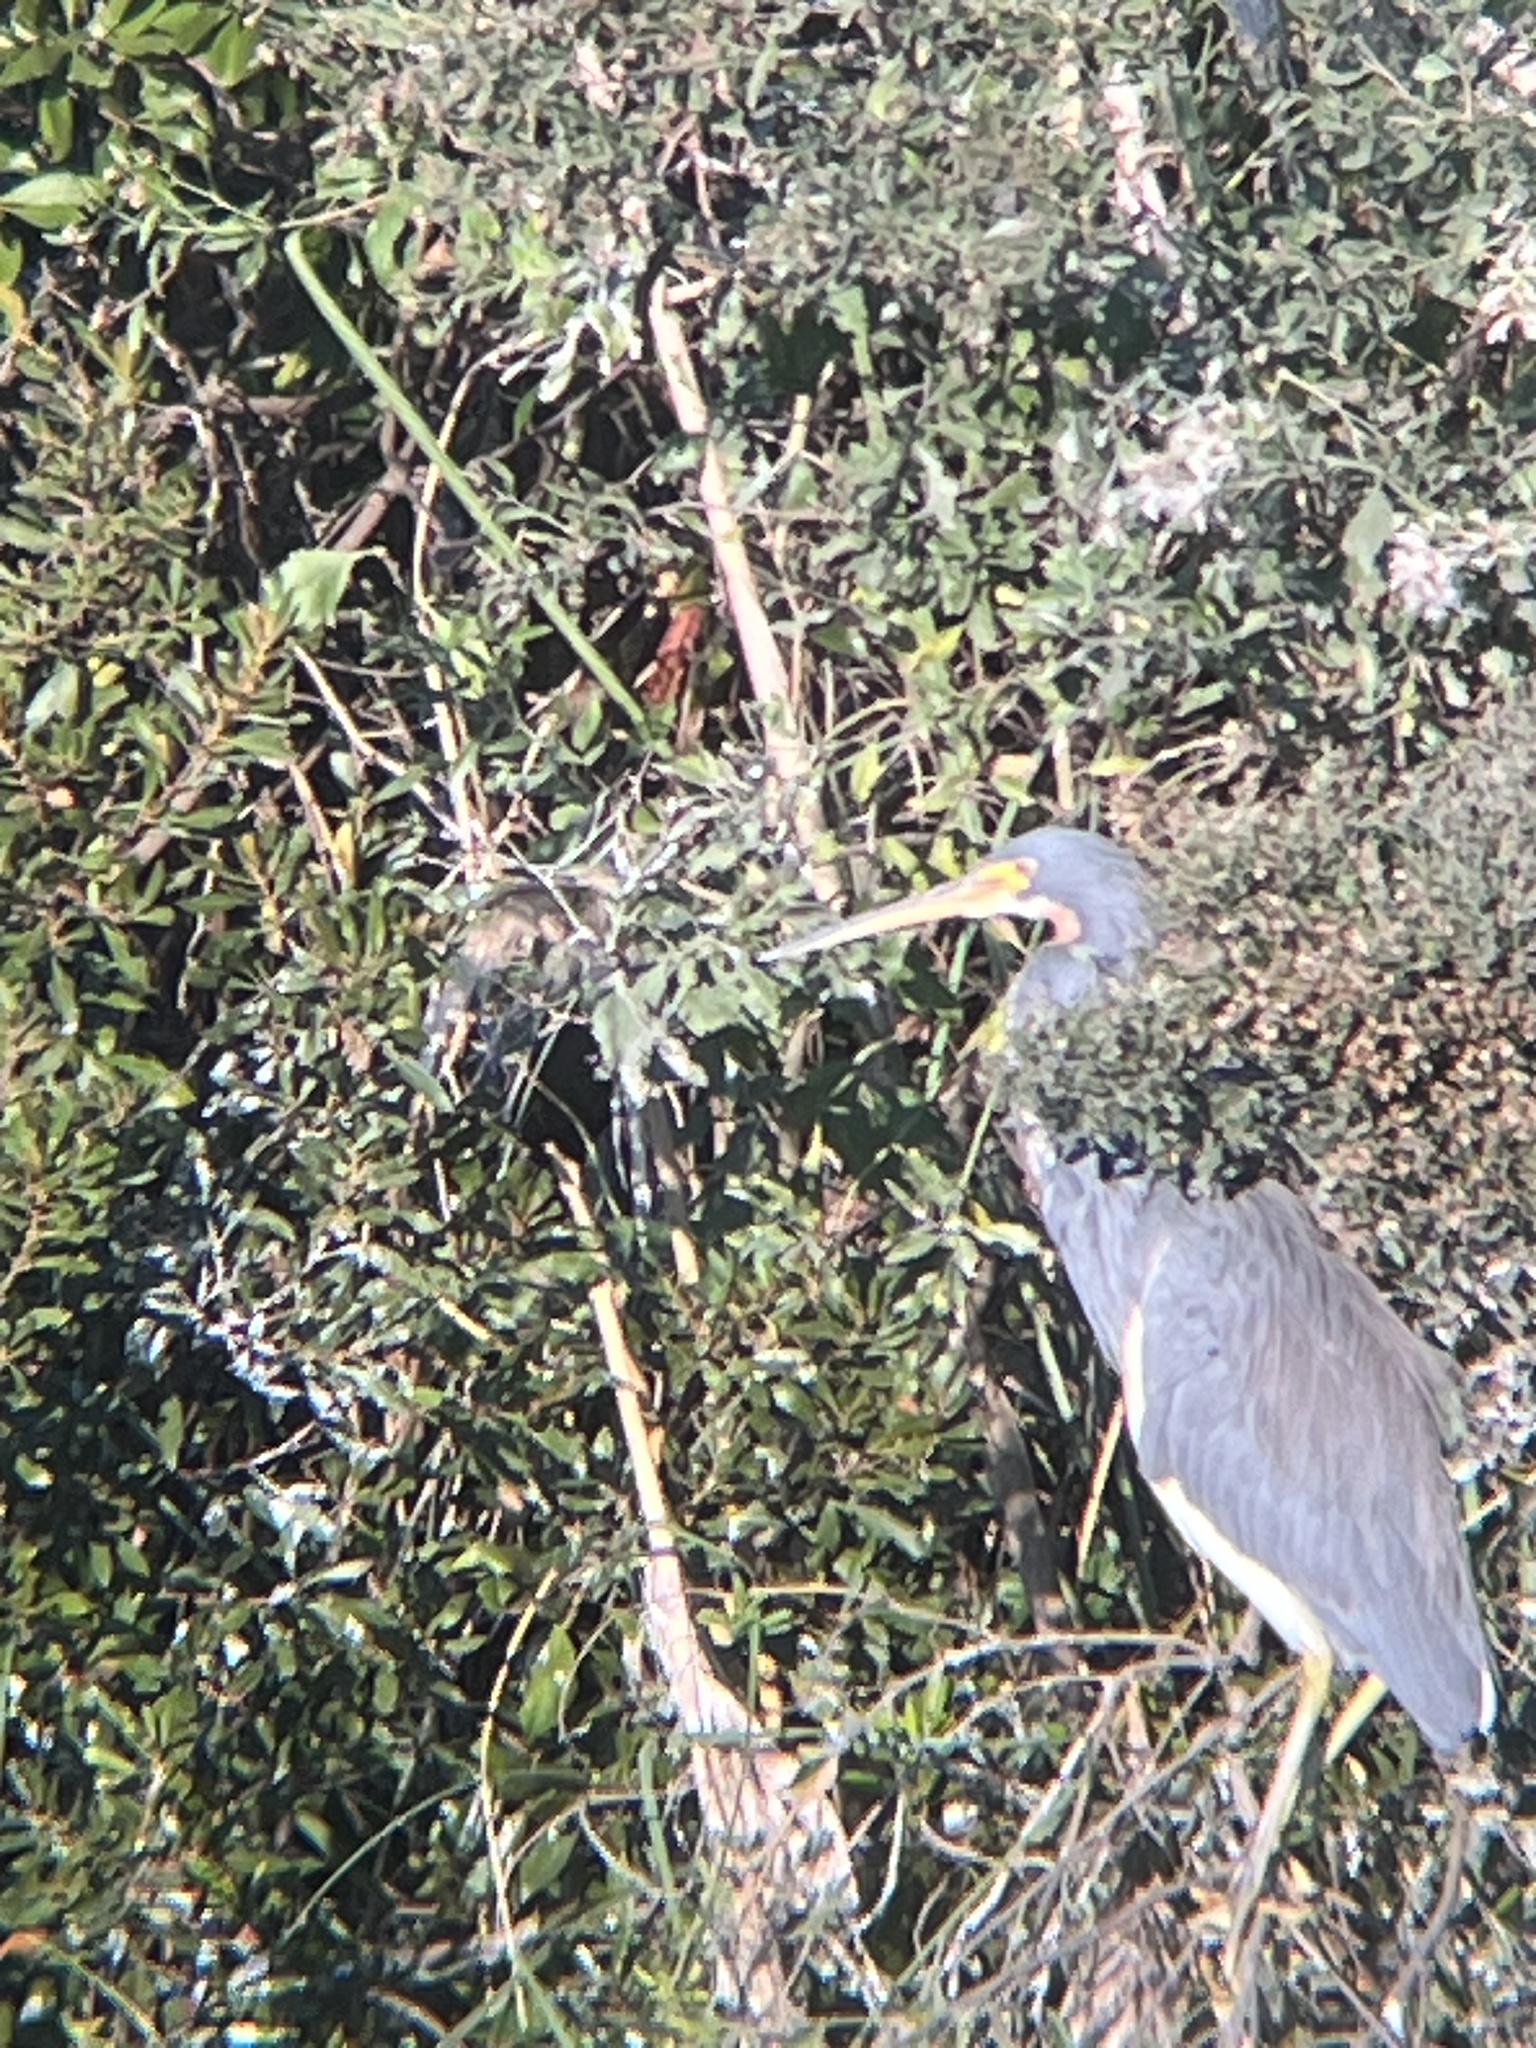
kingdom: Animalia
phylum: Chordata
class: Aves
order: Pelecaniformes
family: Ardeidae
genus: Egretta
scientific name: Egretta tricolor
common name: Tricolored heron
